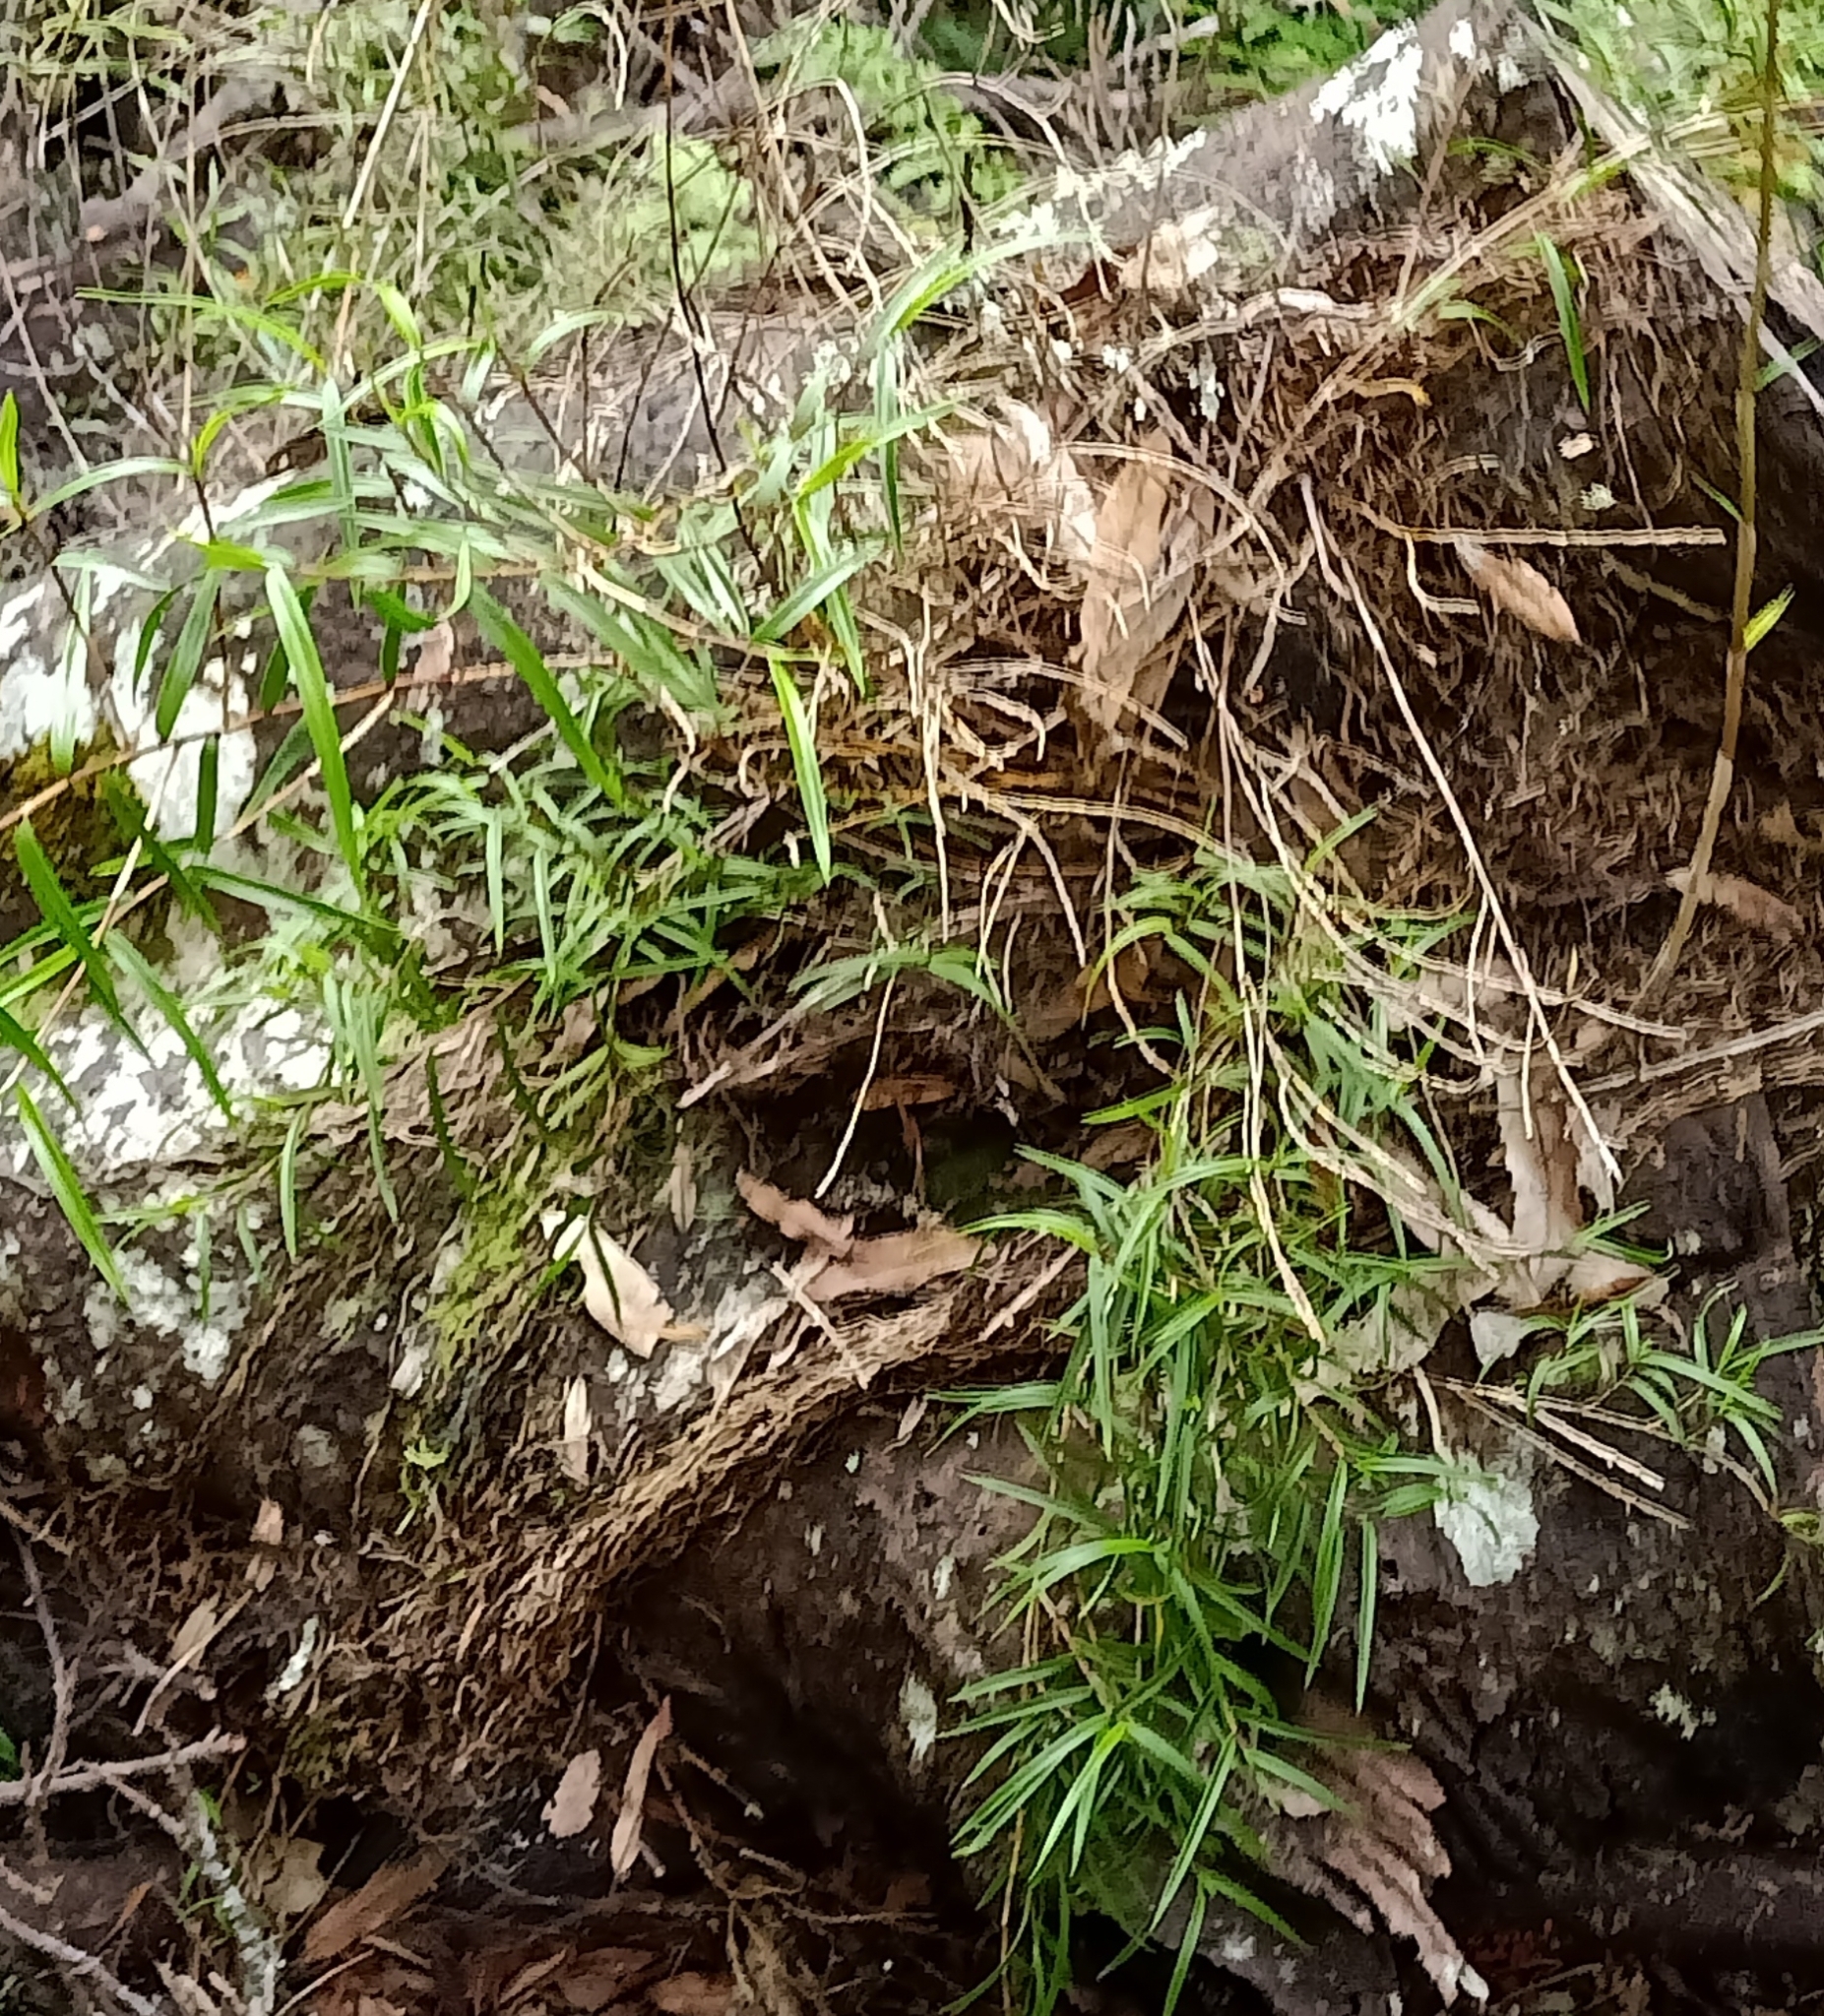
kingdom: Plantae
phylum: Tracheophyta
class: Liliopsida
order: Asparagales
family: Orchidaceae
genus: Dendrobium
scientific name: Dendrobium cunninghamii
